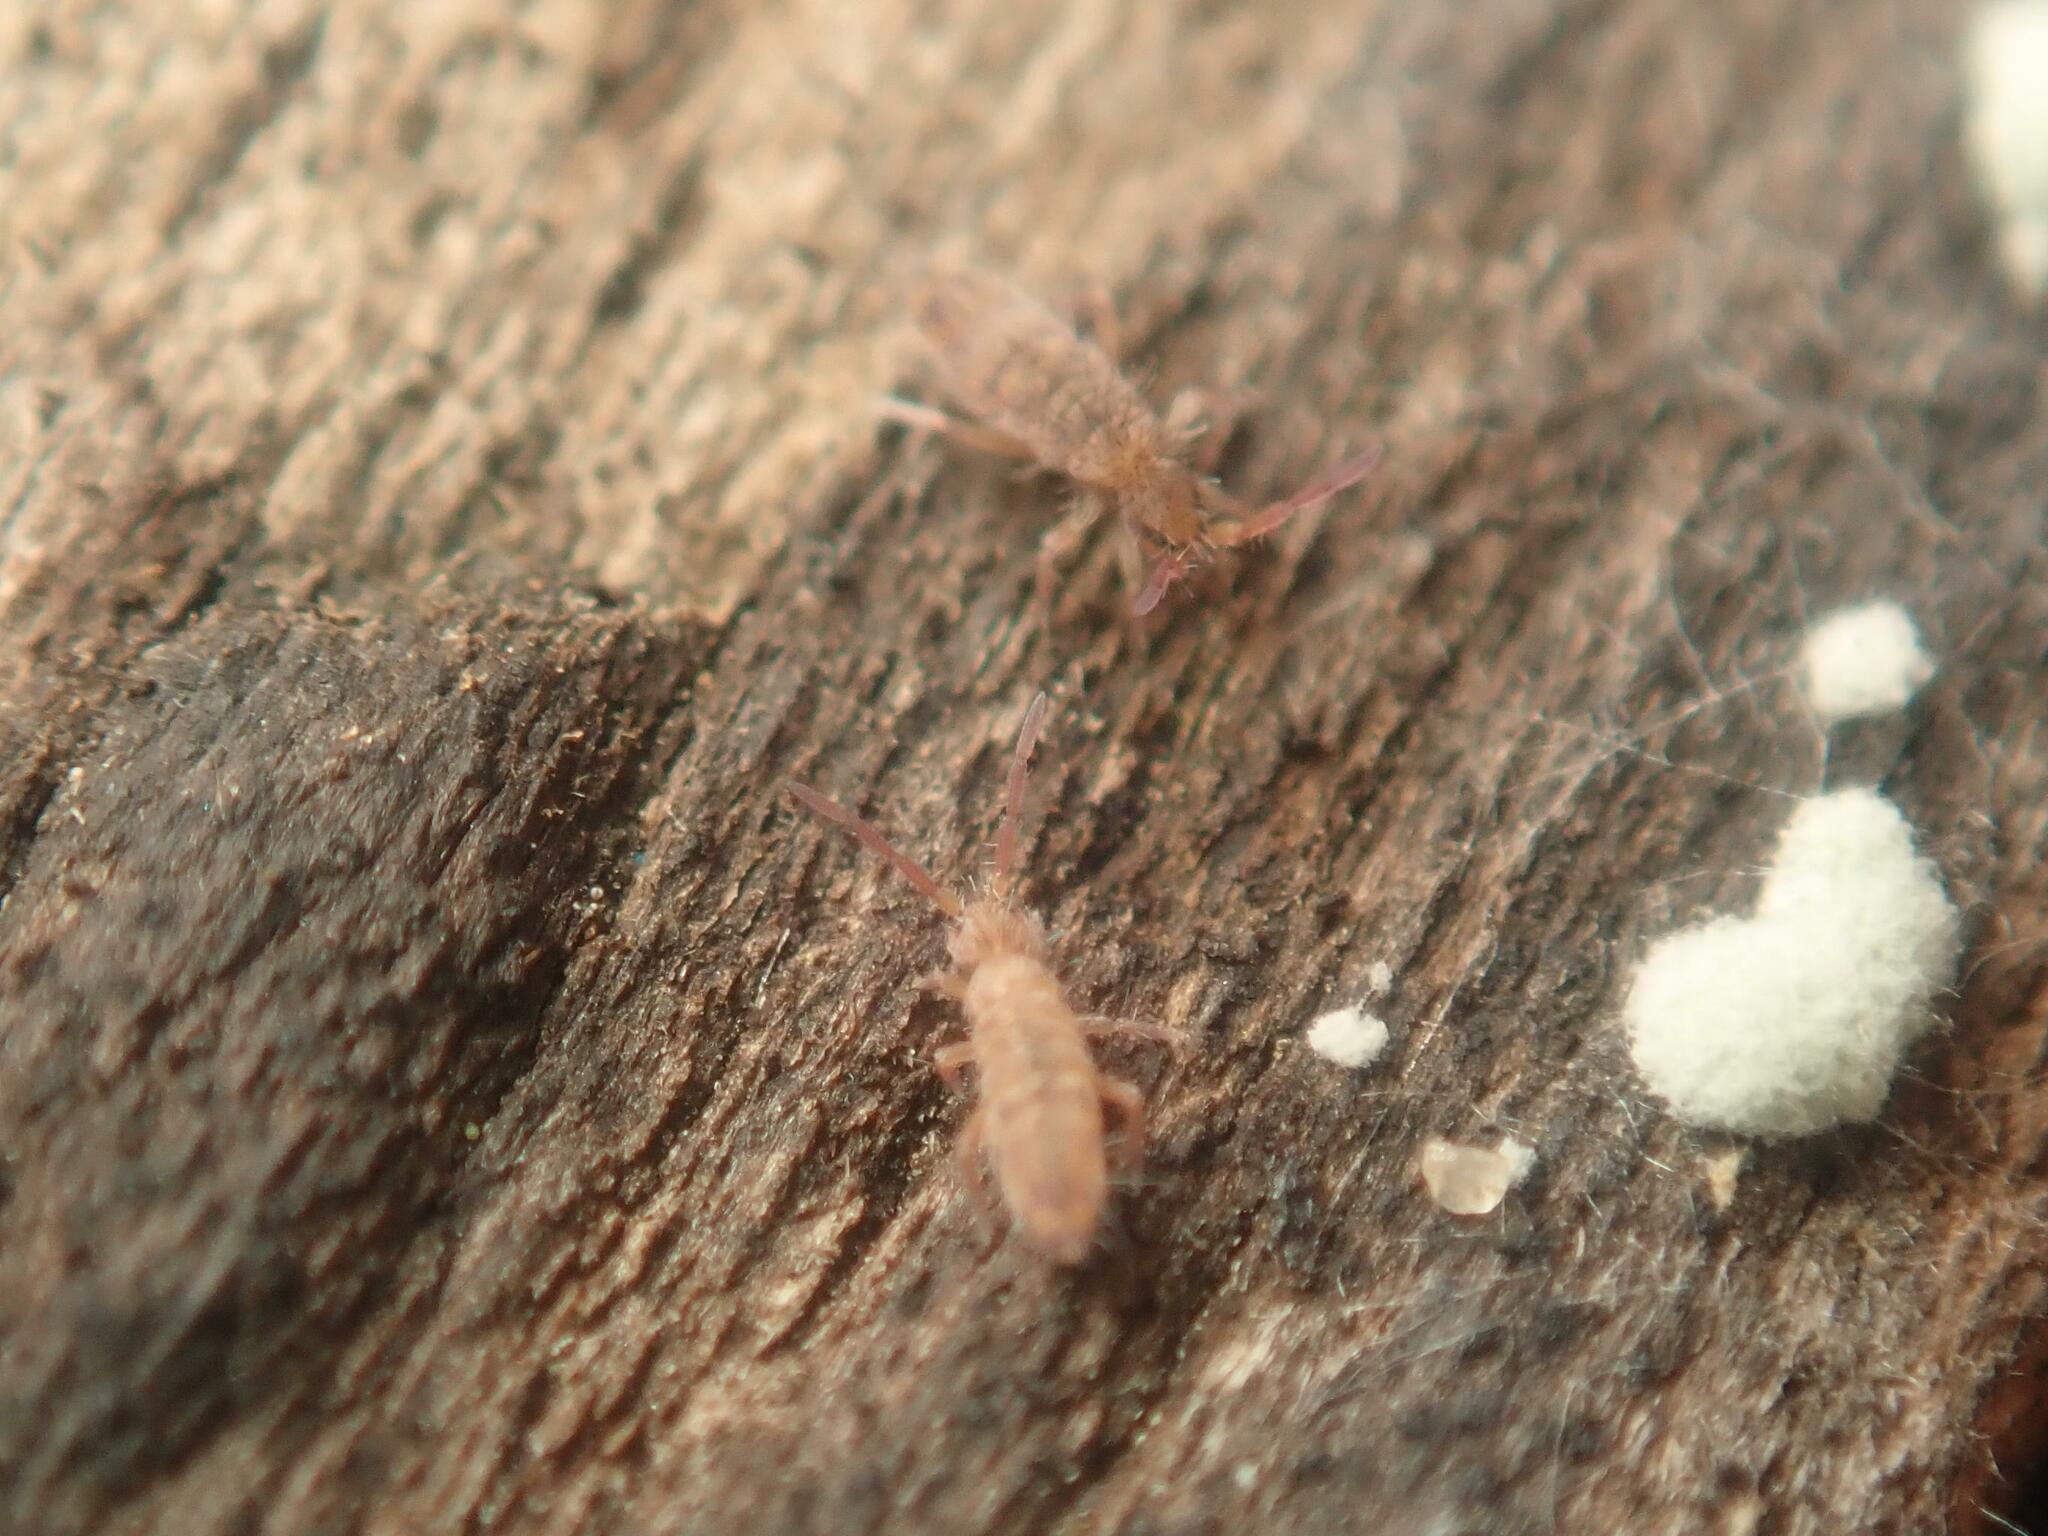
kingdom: Animalia
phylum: Arthropoda
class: Collembola
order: Entomobryomorpha
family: Entomobryidae
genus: Entomobrya
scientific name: Entomobrya multifasciata
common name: Springtail
